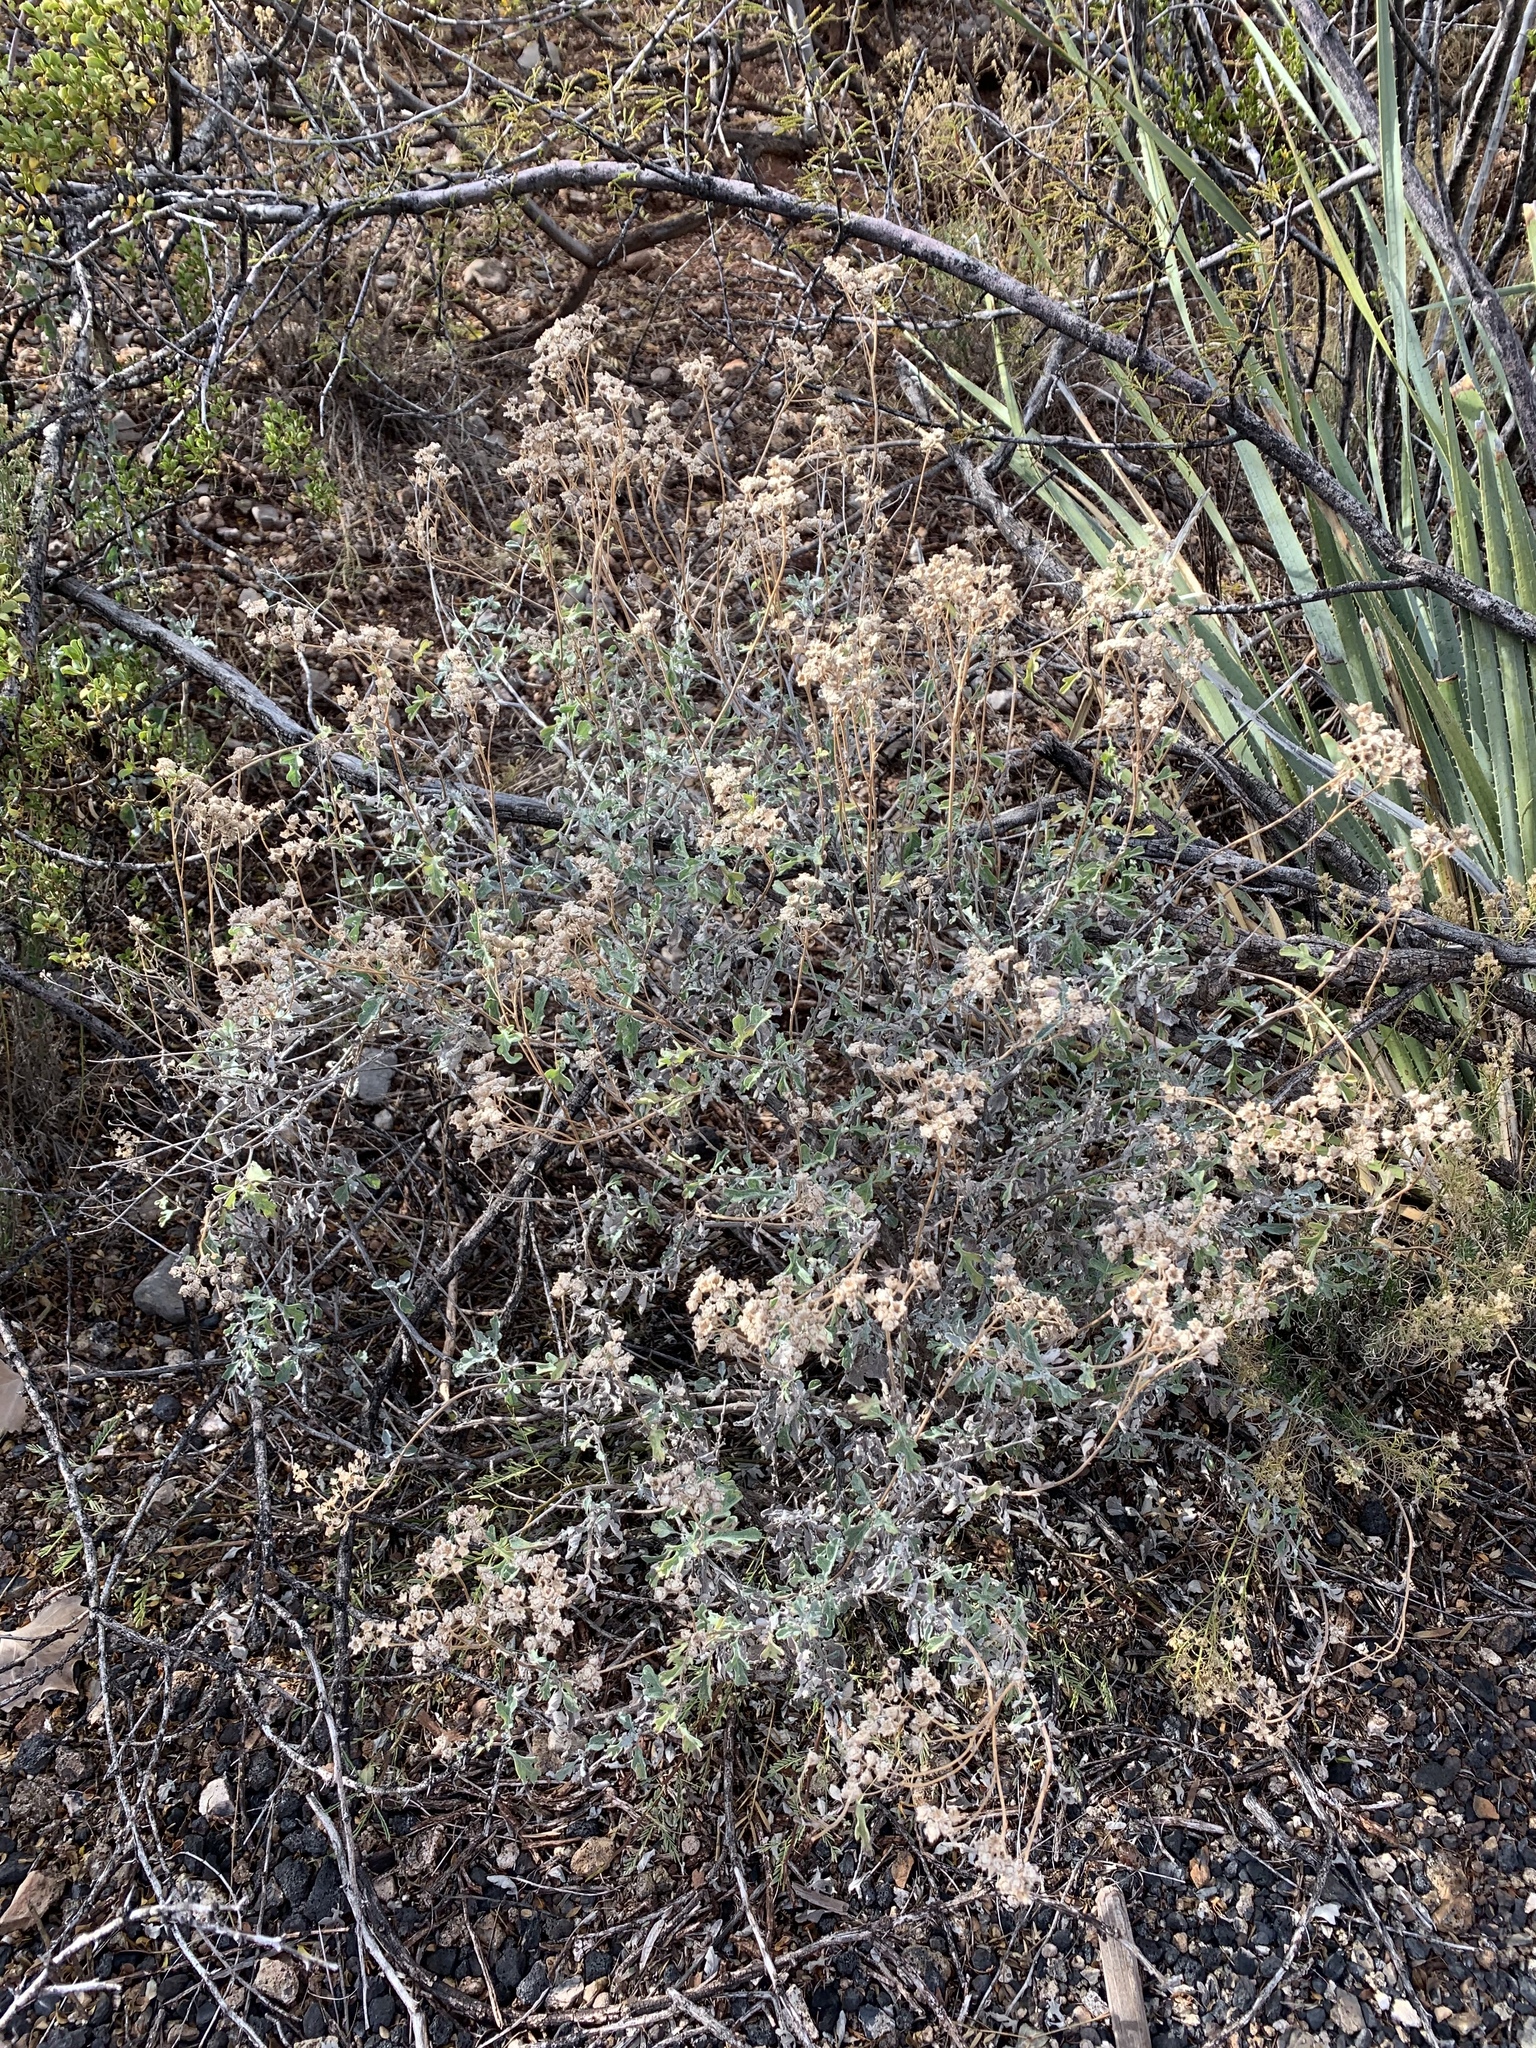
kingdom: Plantae
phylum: Tracheophyta
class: Magnoliopsida
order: Asterales
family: Asteraceae
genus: Parthenium
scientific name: Parthenium incanum
